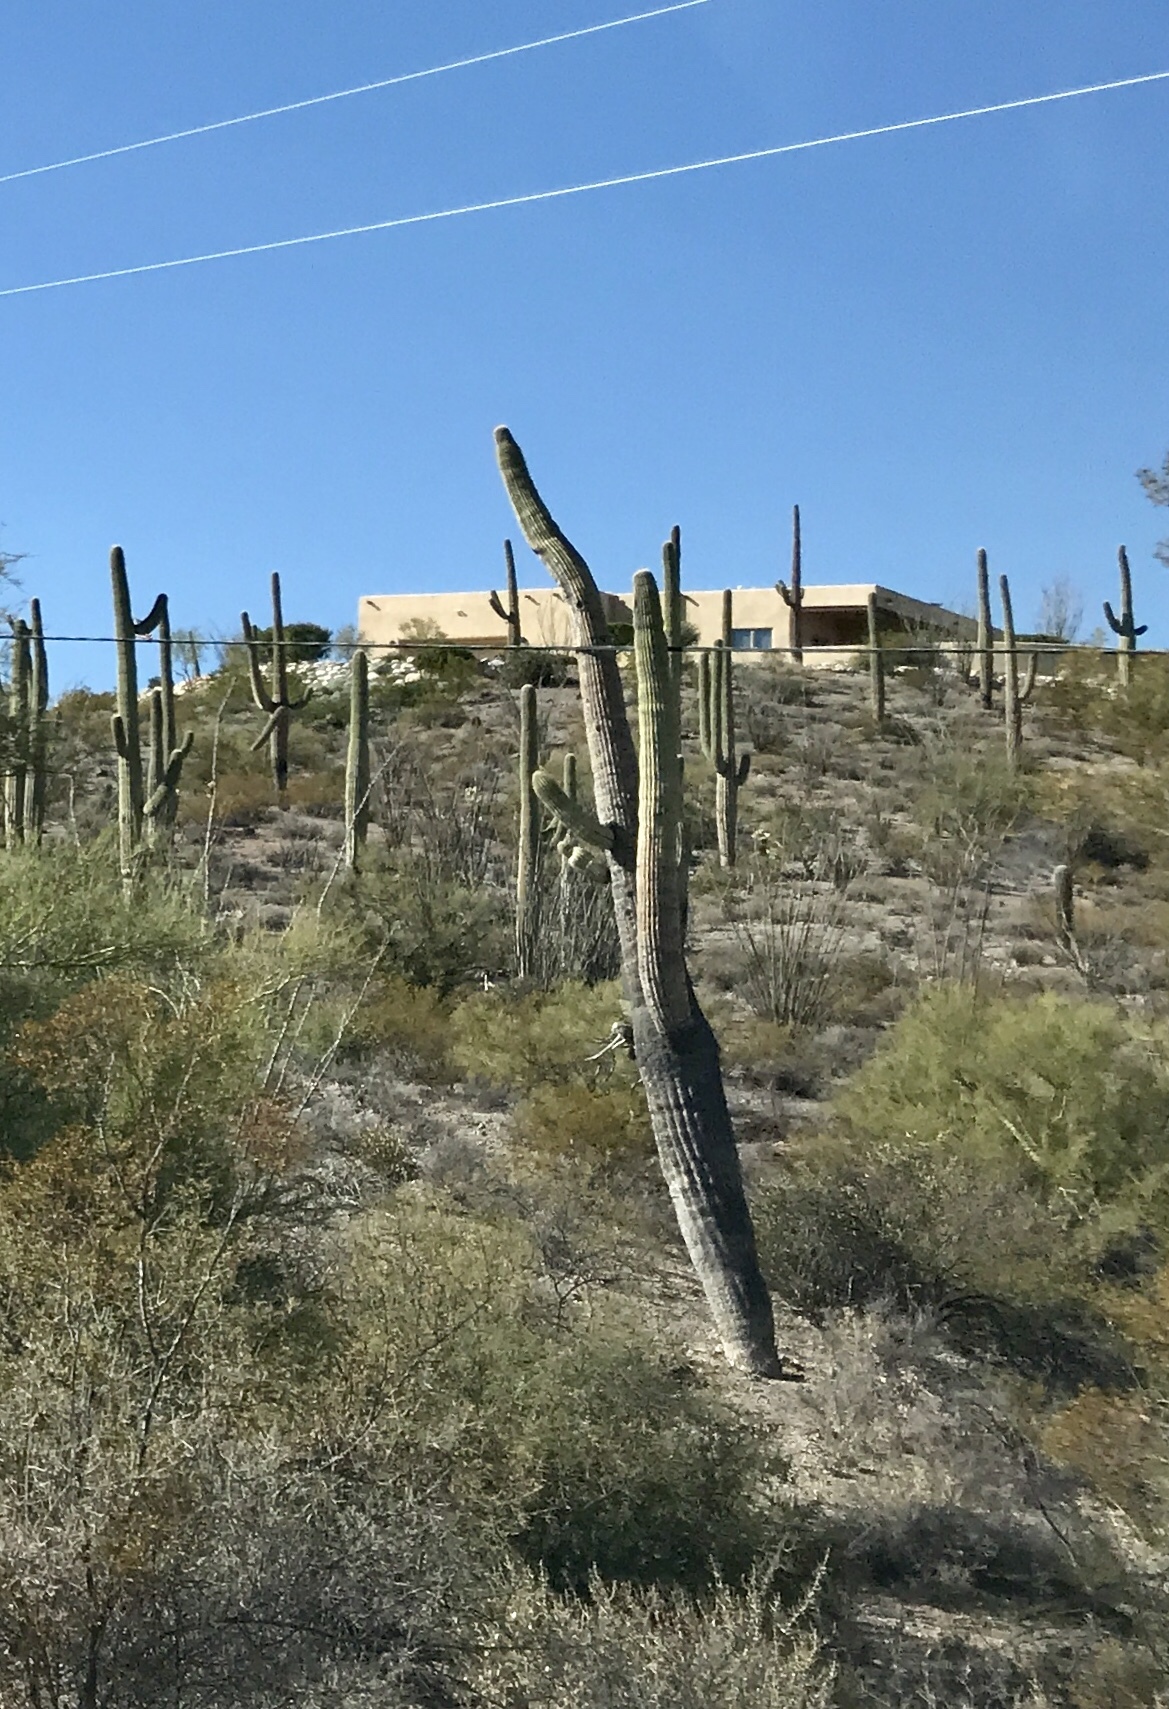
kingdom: Plantae
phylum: Tracheophyta
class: Magnoliopsida
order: Caryophyllales
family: Cactaceae
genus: Carnegiea
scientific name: Carnegiea gigantea
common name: Saguaro
